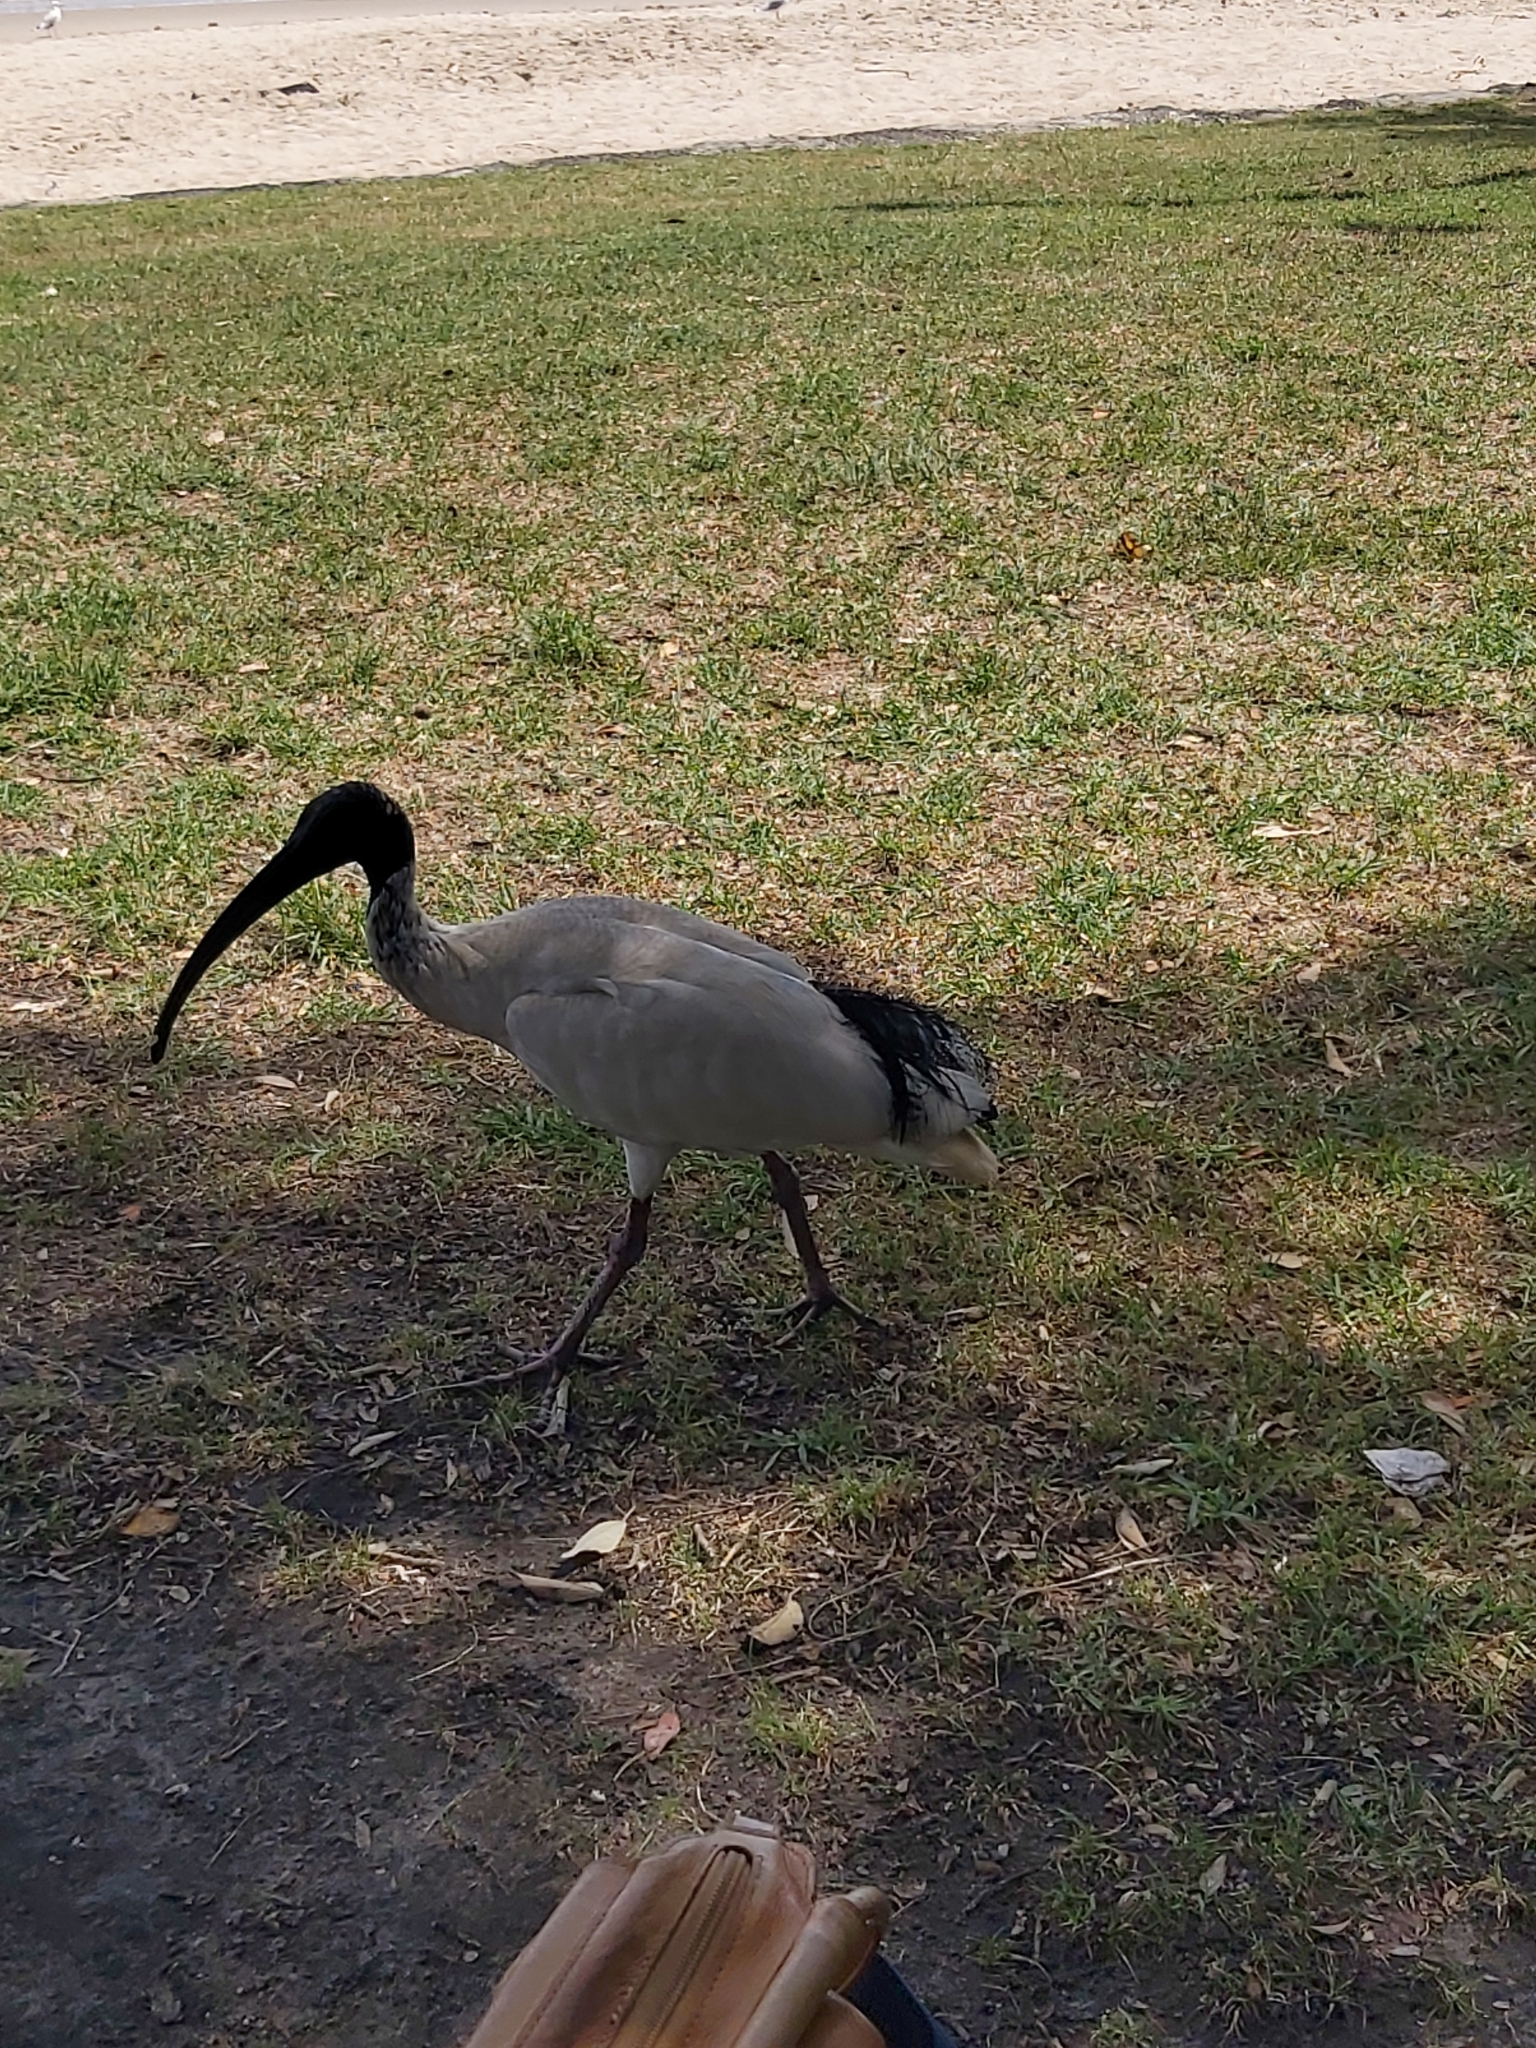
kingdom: Animalia
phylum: Chordata
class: Aves
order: Pelecaniformes
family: Threskiornithidae
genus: Threskiornis
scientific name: Threskiornis molucca
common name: Australian white ibis
